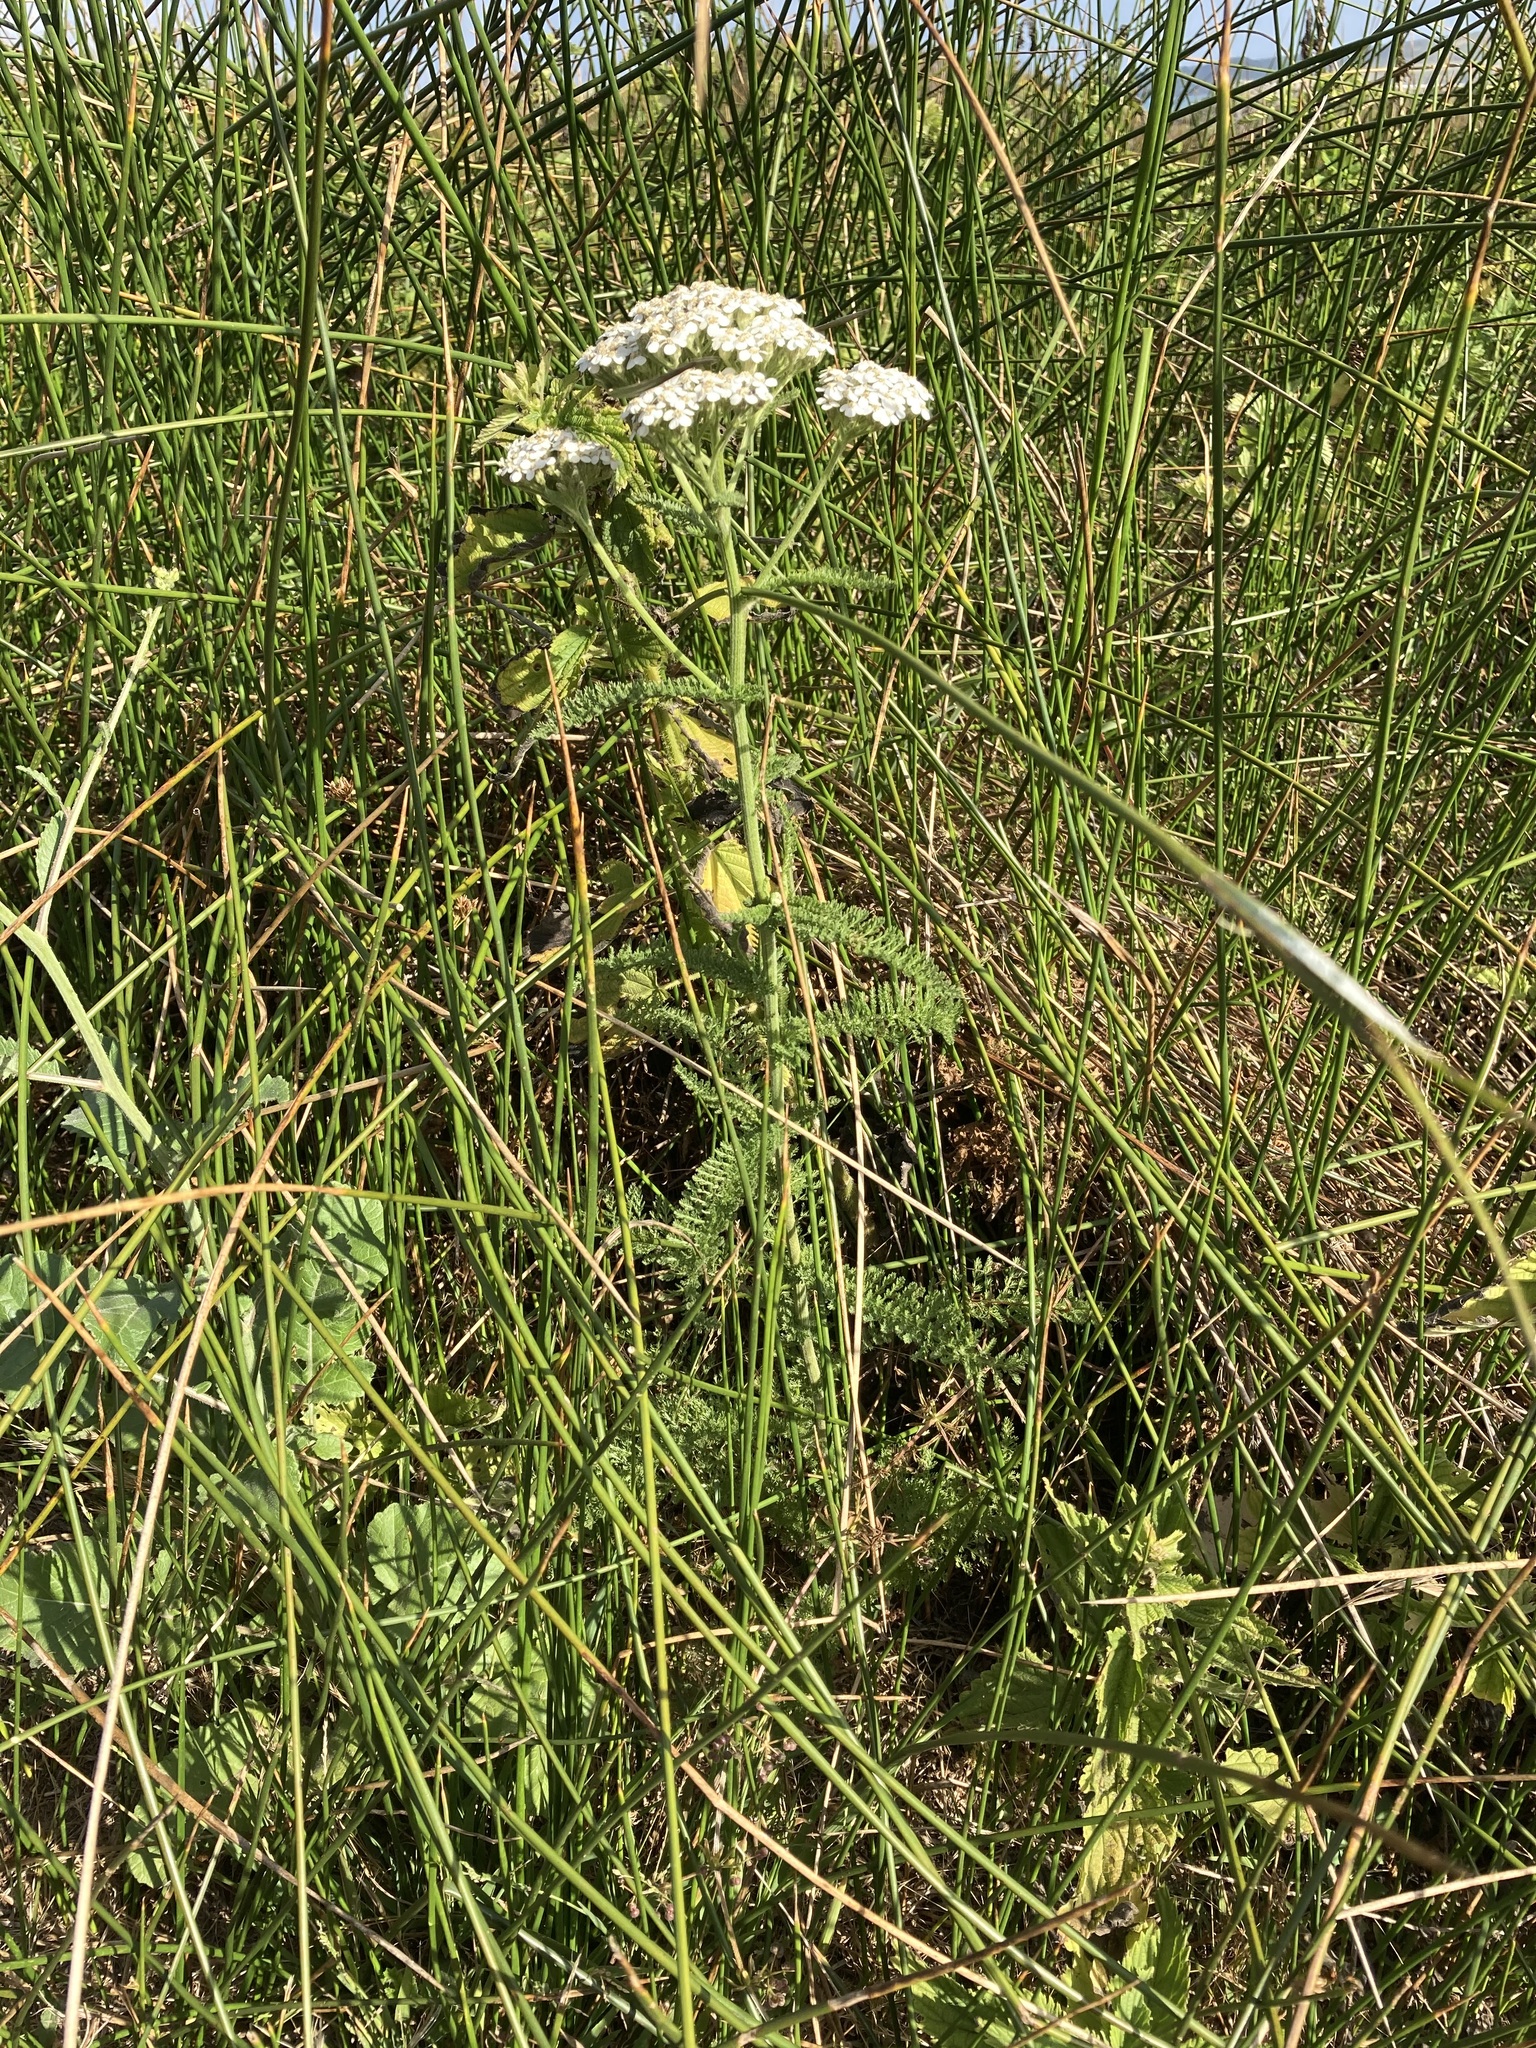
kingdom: Plantae
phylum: Tracheophyta
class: Magnoliopsida
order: Asterales
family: Asteraceae
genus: Achillea
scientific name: Achillea millefolium
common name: Yarrow
